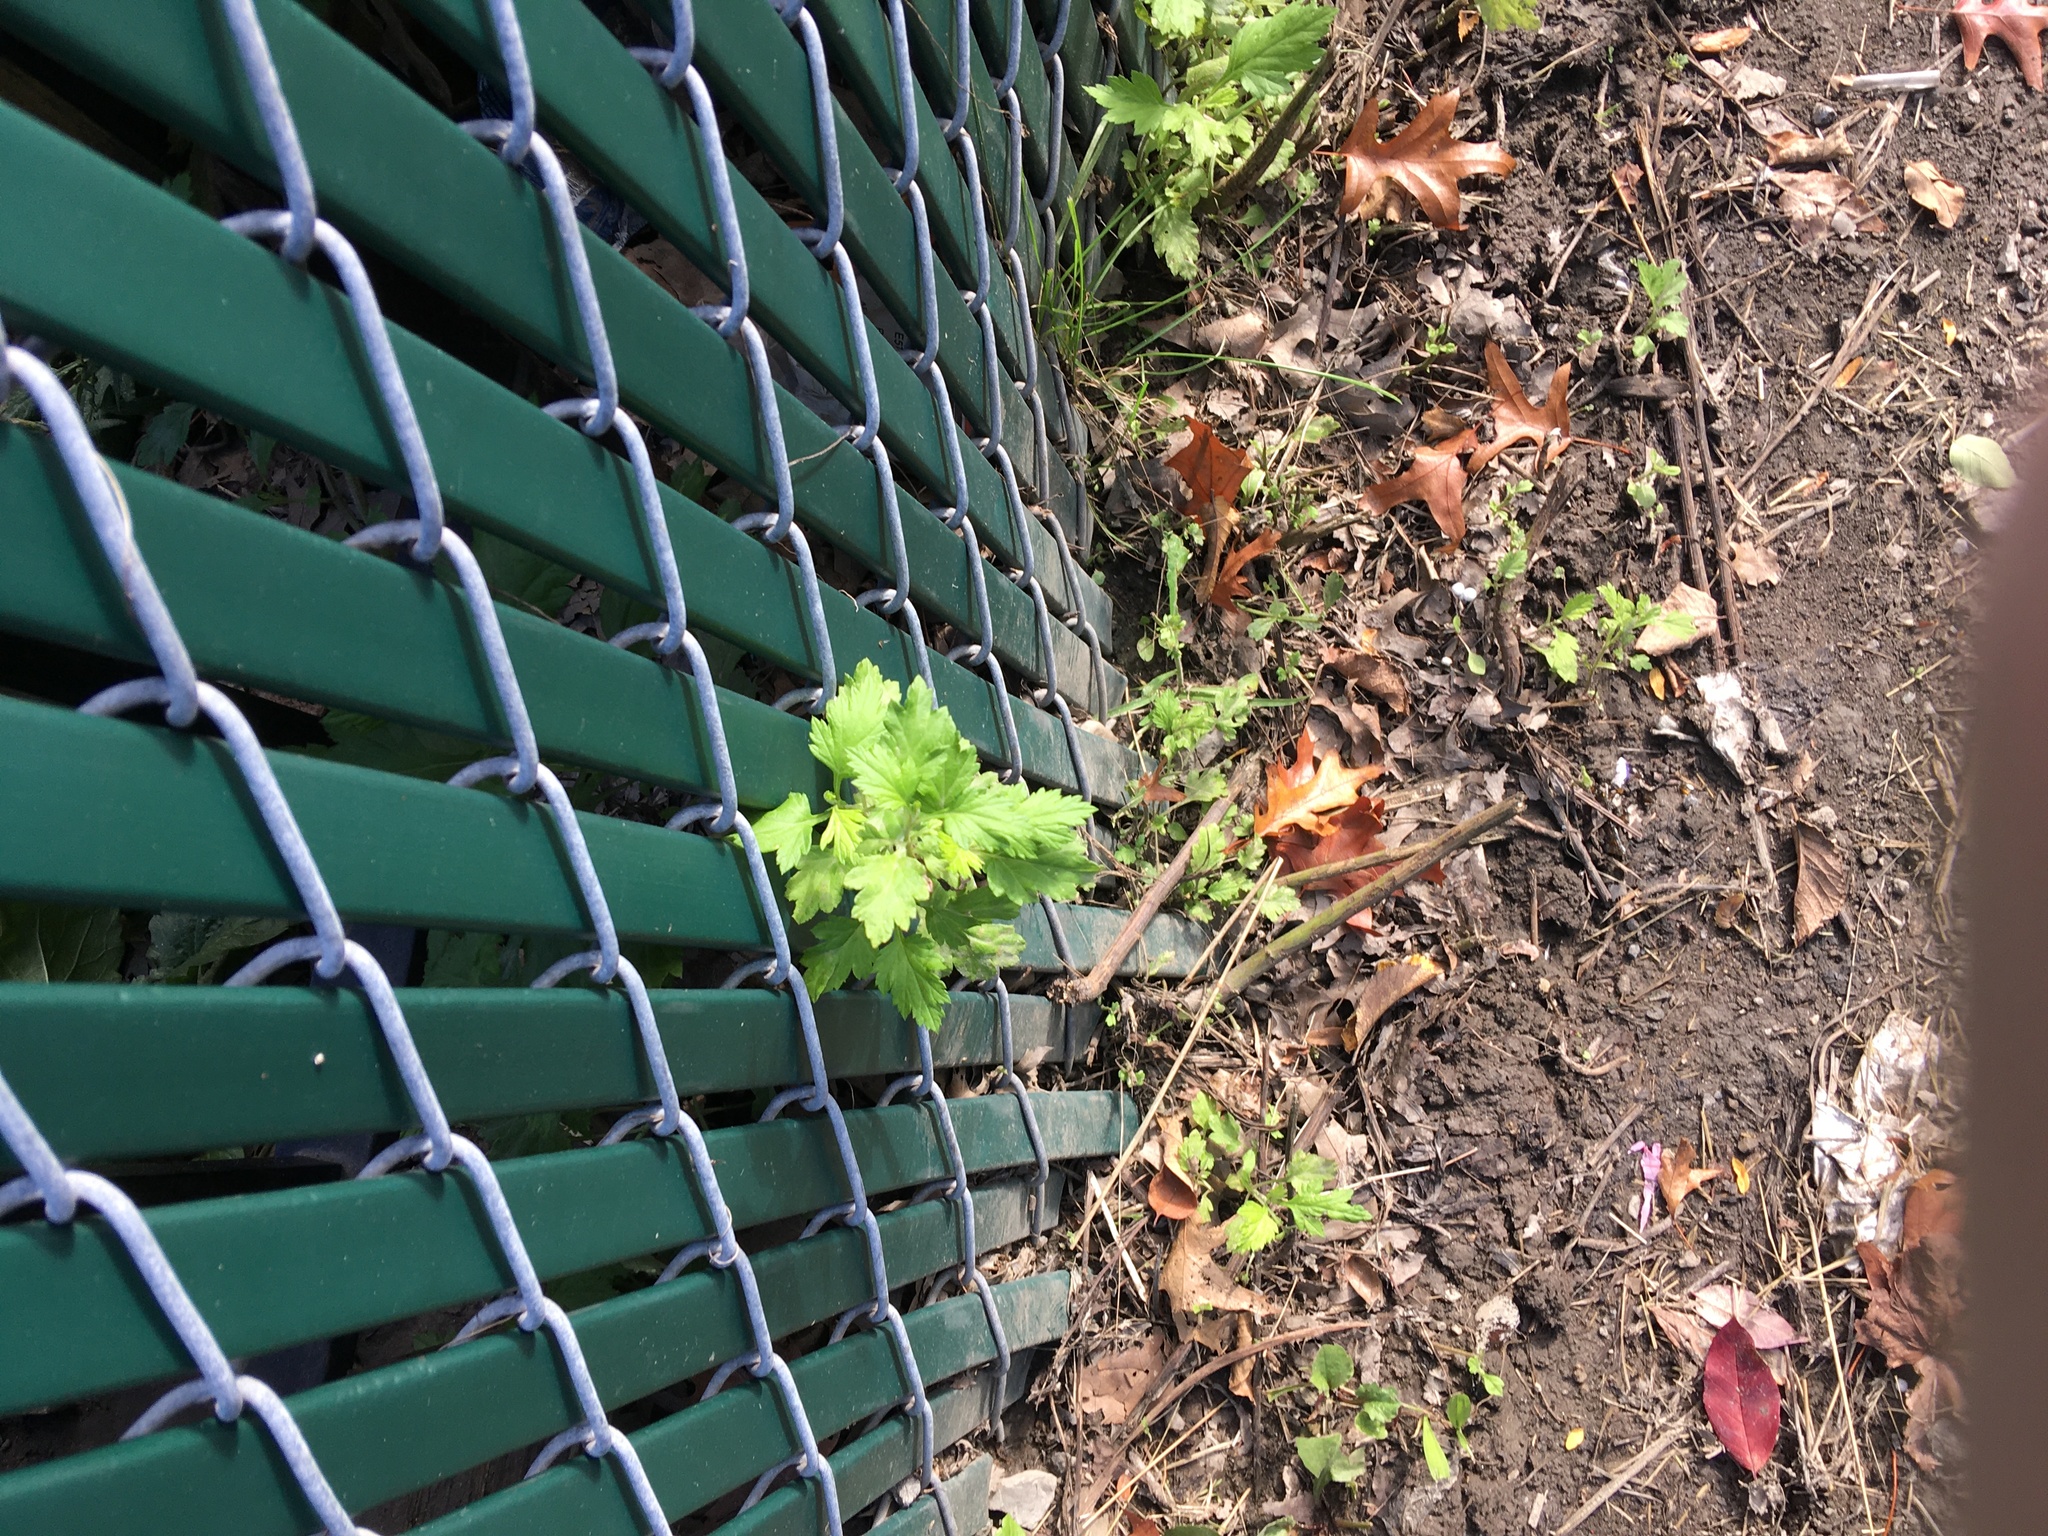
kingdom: Plantae
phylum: Tracheophyta
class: Magnoliopsida
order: Asterales
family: Asteraceae
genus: Artemisia
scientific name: Artemisia vulgaris
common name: Mugwort
